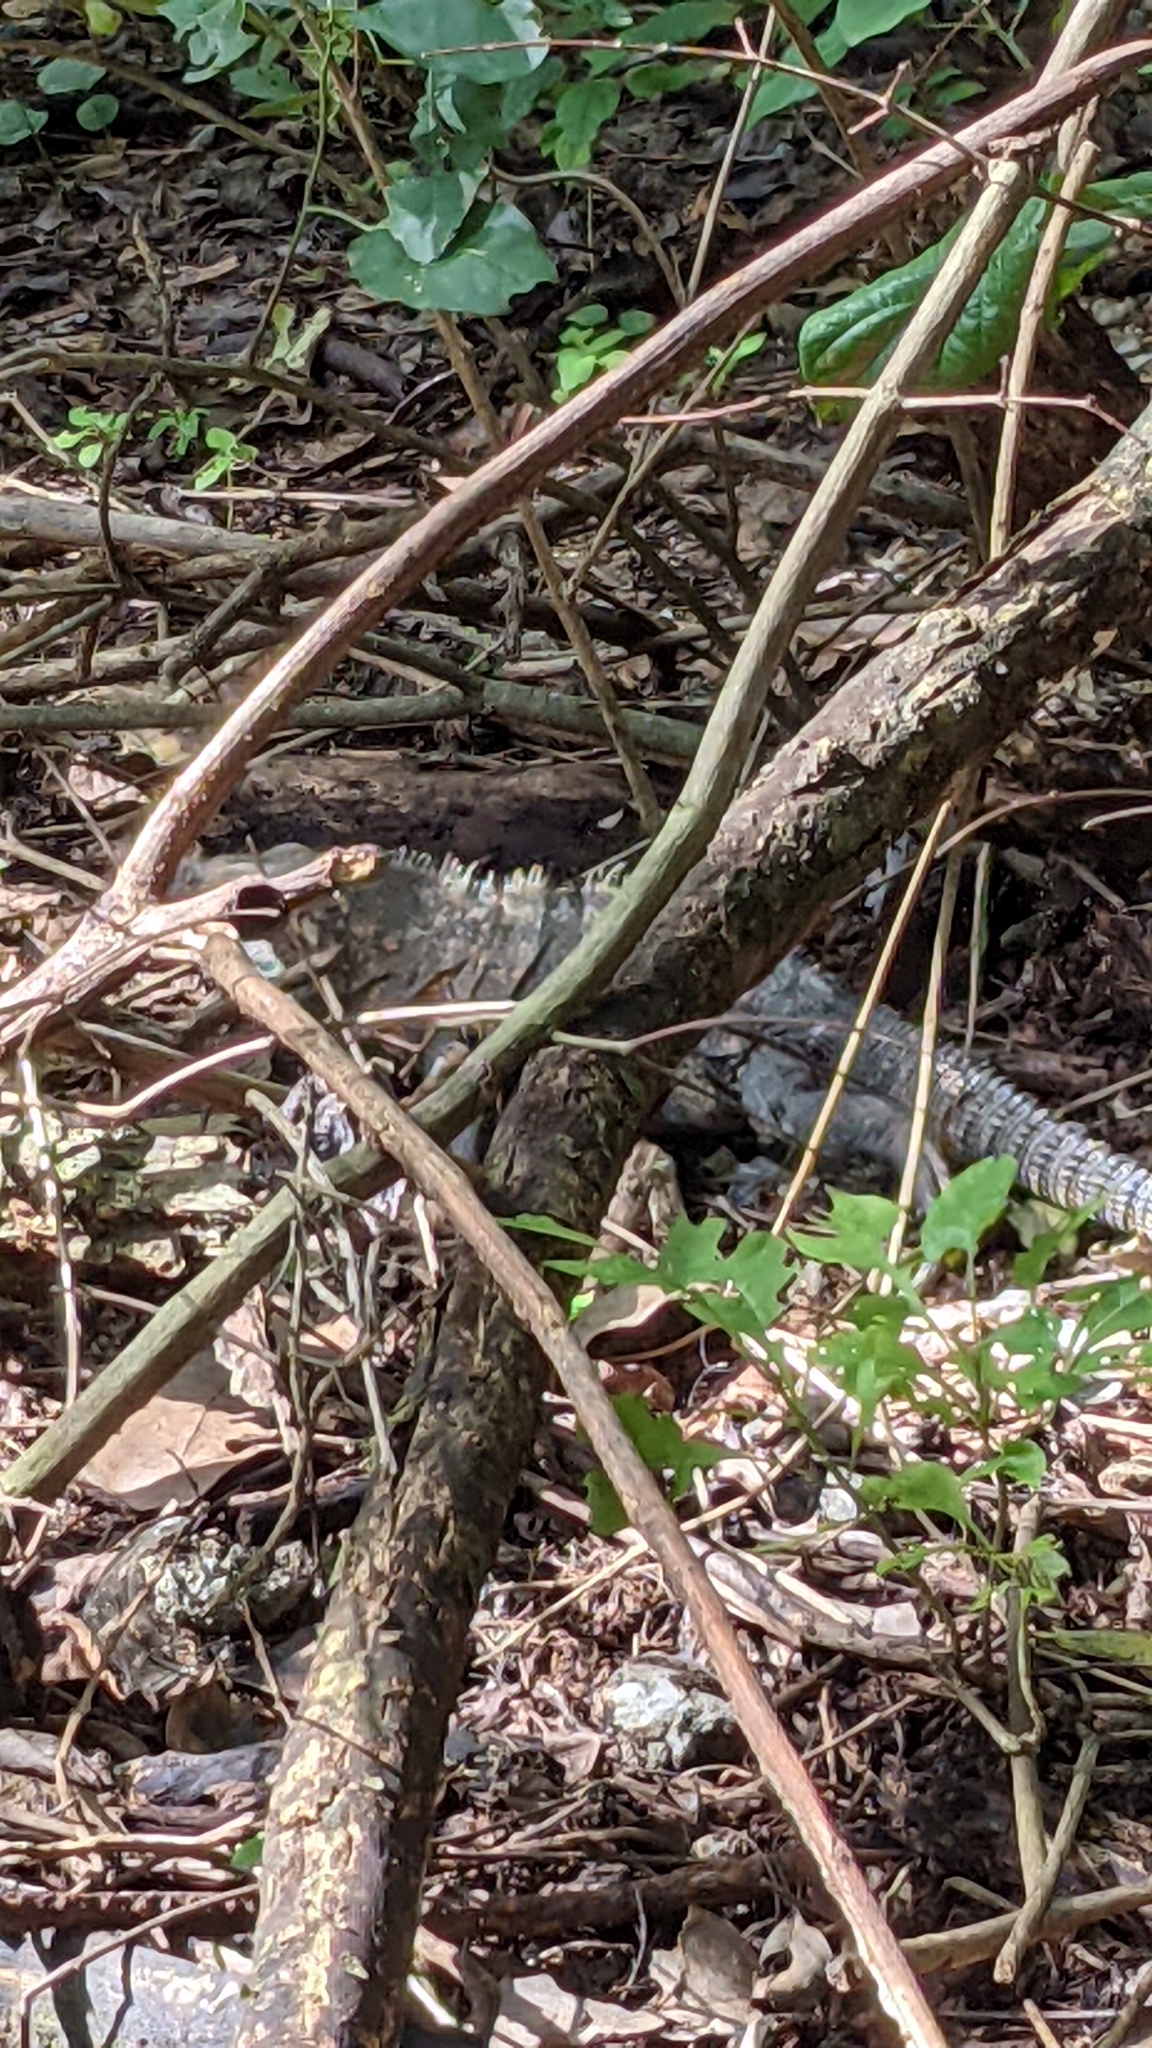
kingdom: Animalia
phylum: Chordata
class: Squamata
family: Iguanidae
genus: Ctenosaura
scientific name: Ctenosaura similis
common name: Black spiny-tailed iguana
